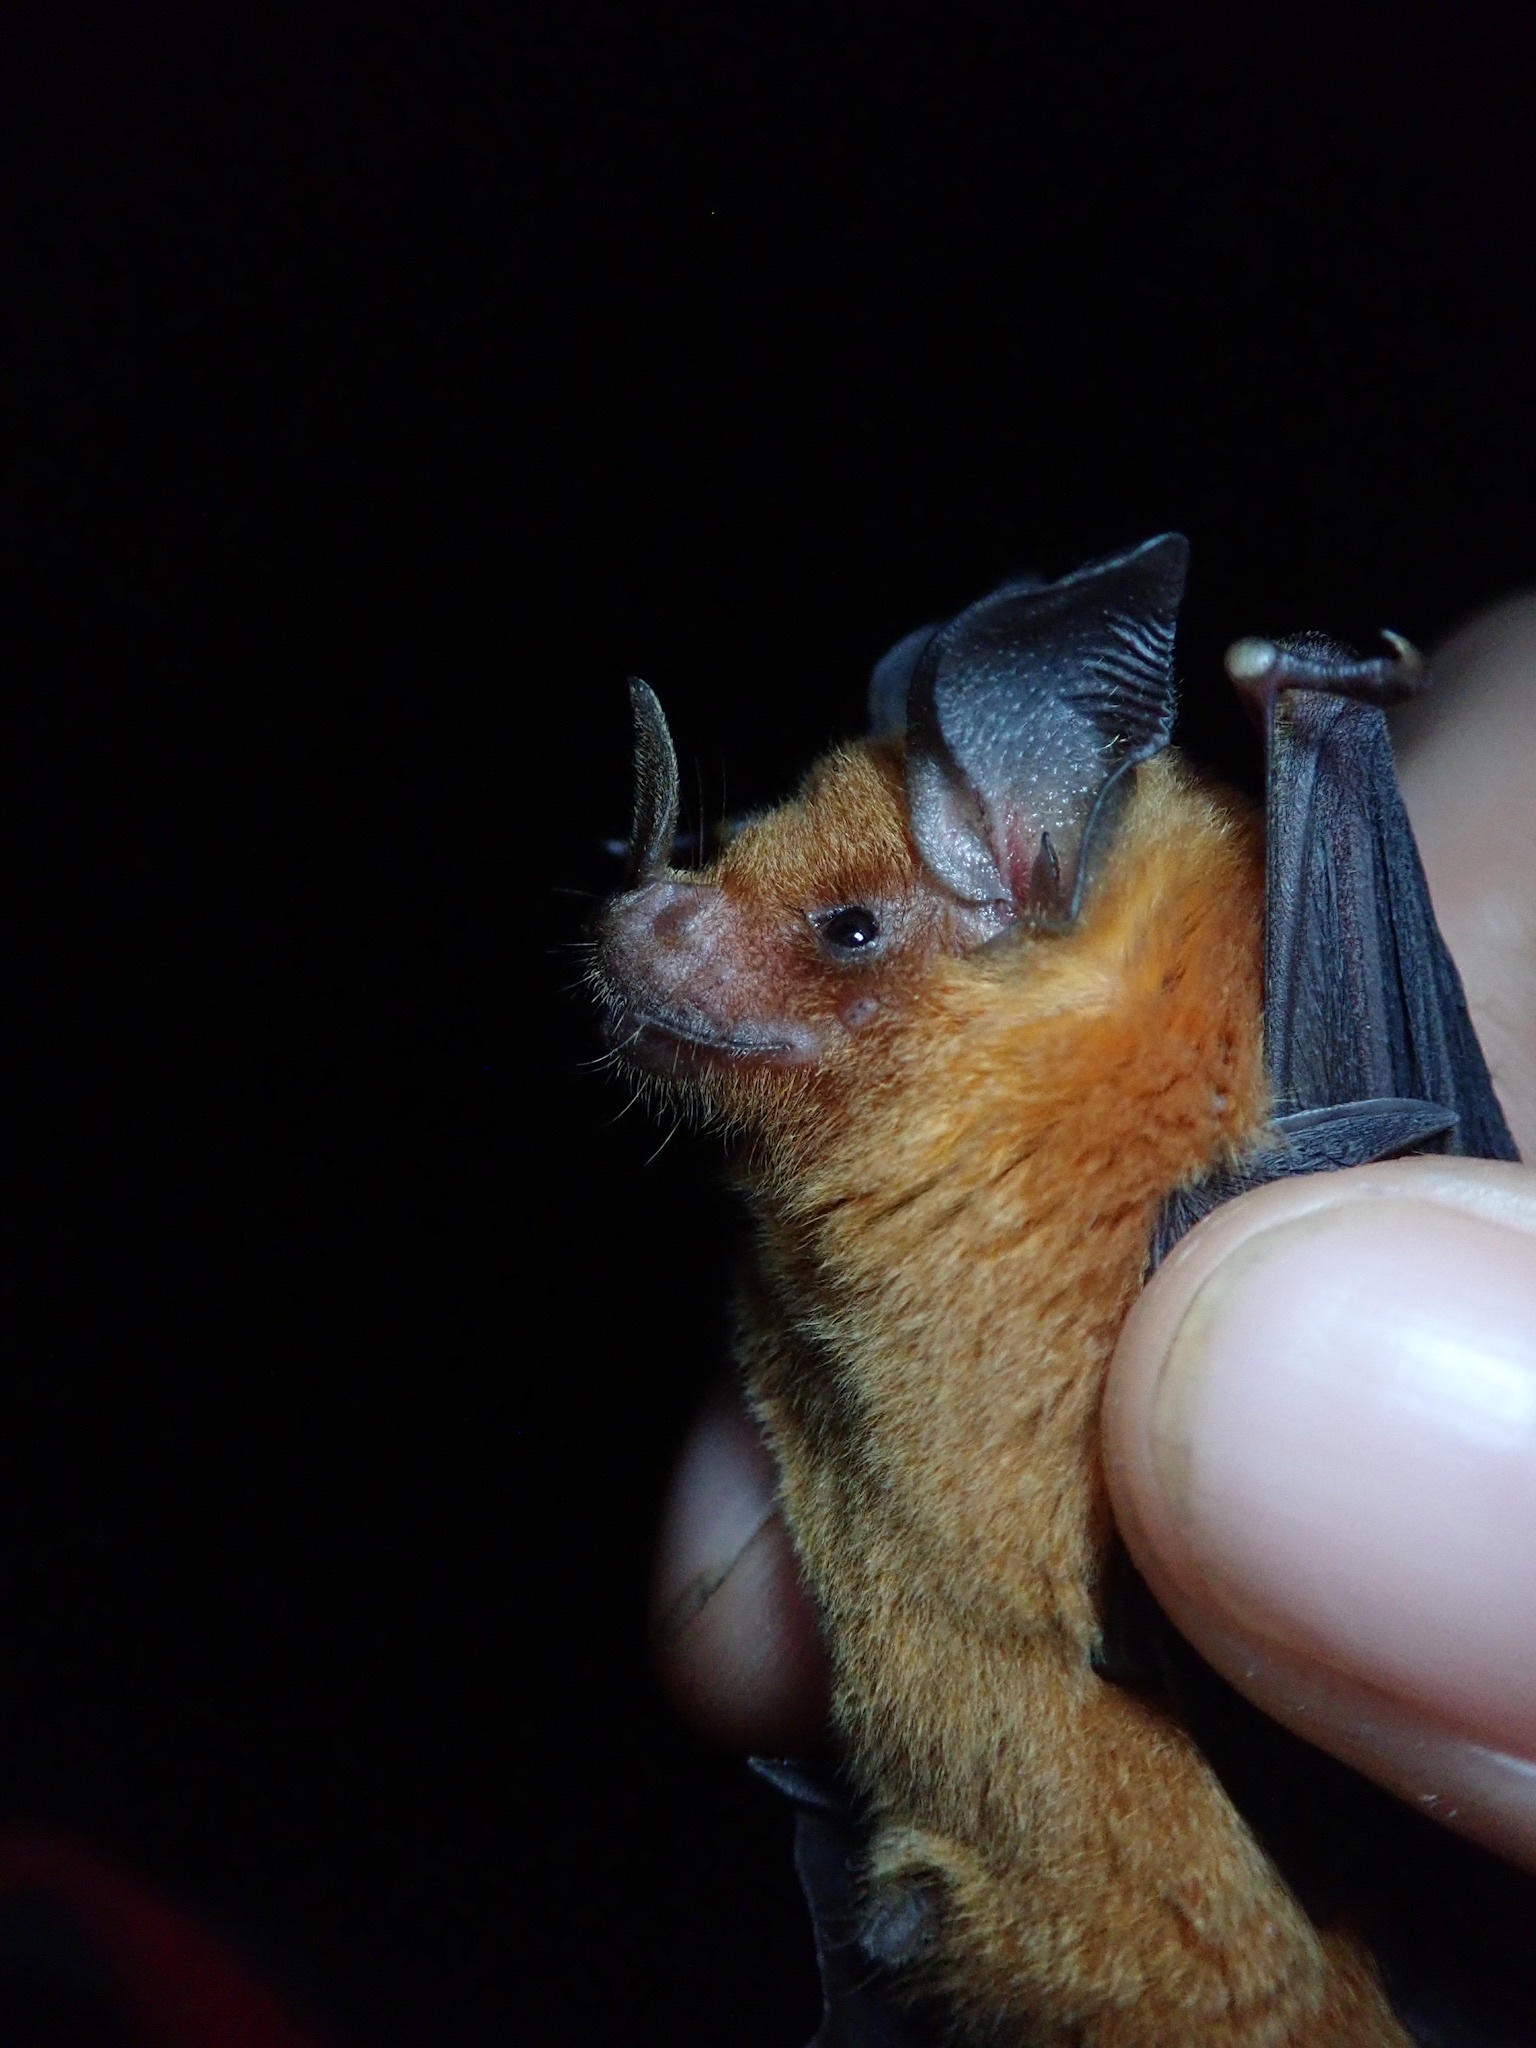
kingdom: Animalia
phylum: Chordata
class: Mammalia
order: Chiroptera
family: Phyllostomidae
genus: Trinycteris
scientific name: Trinycteris nicefori
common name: Niceforo's bat
